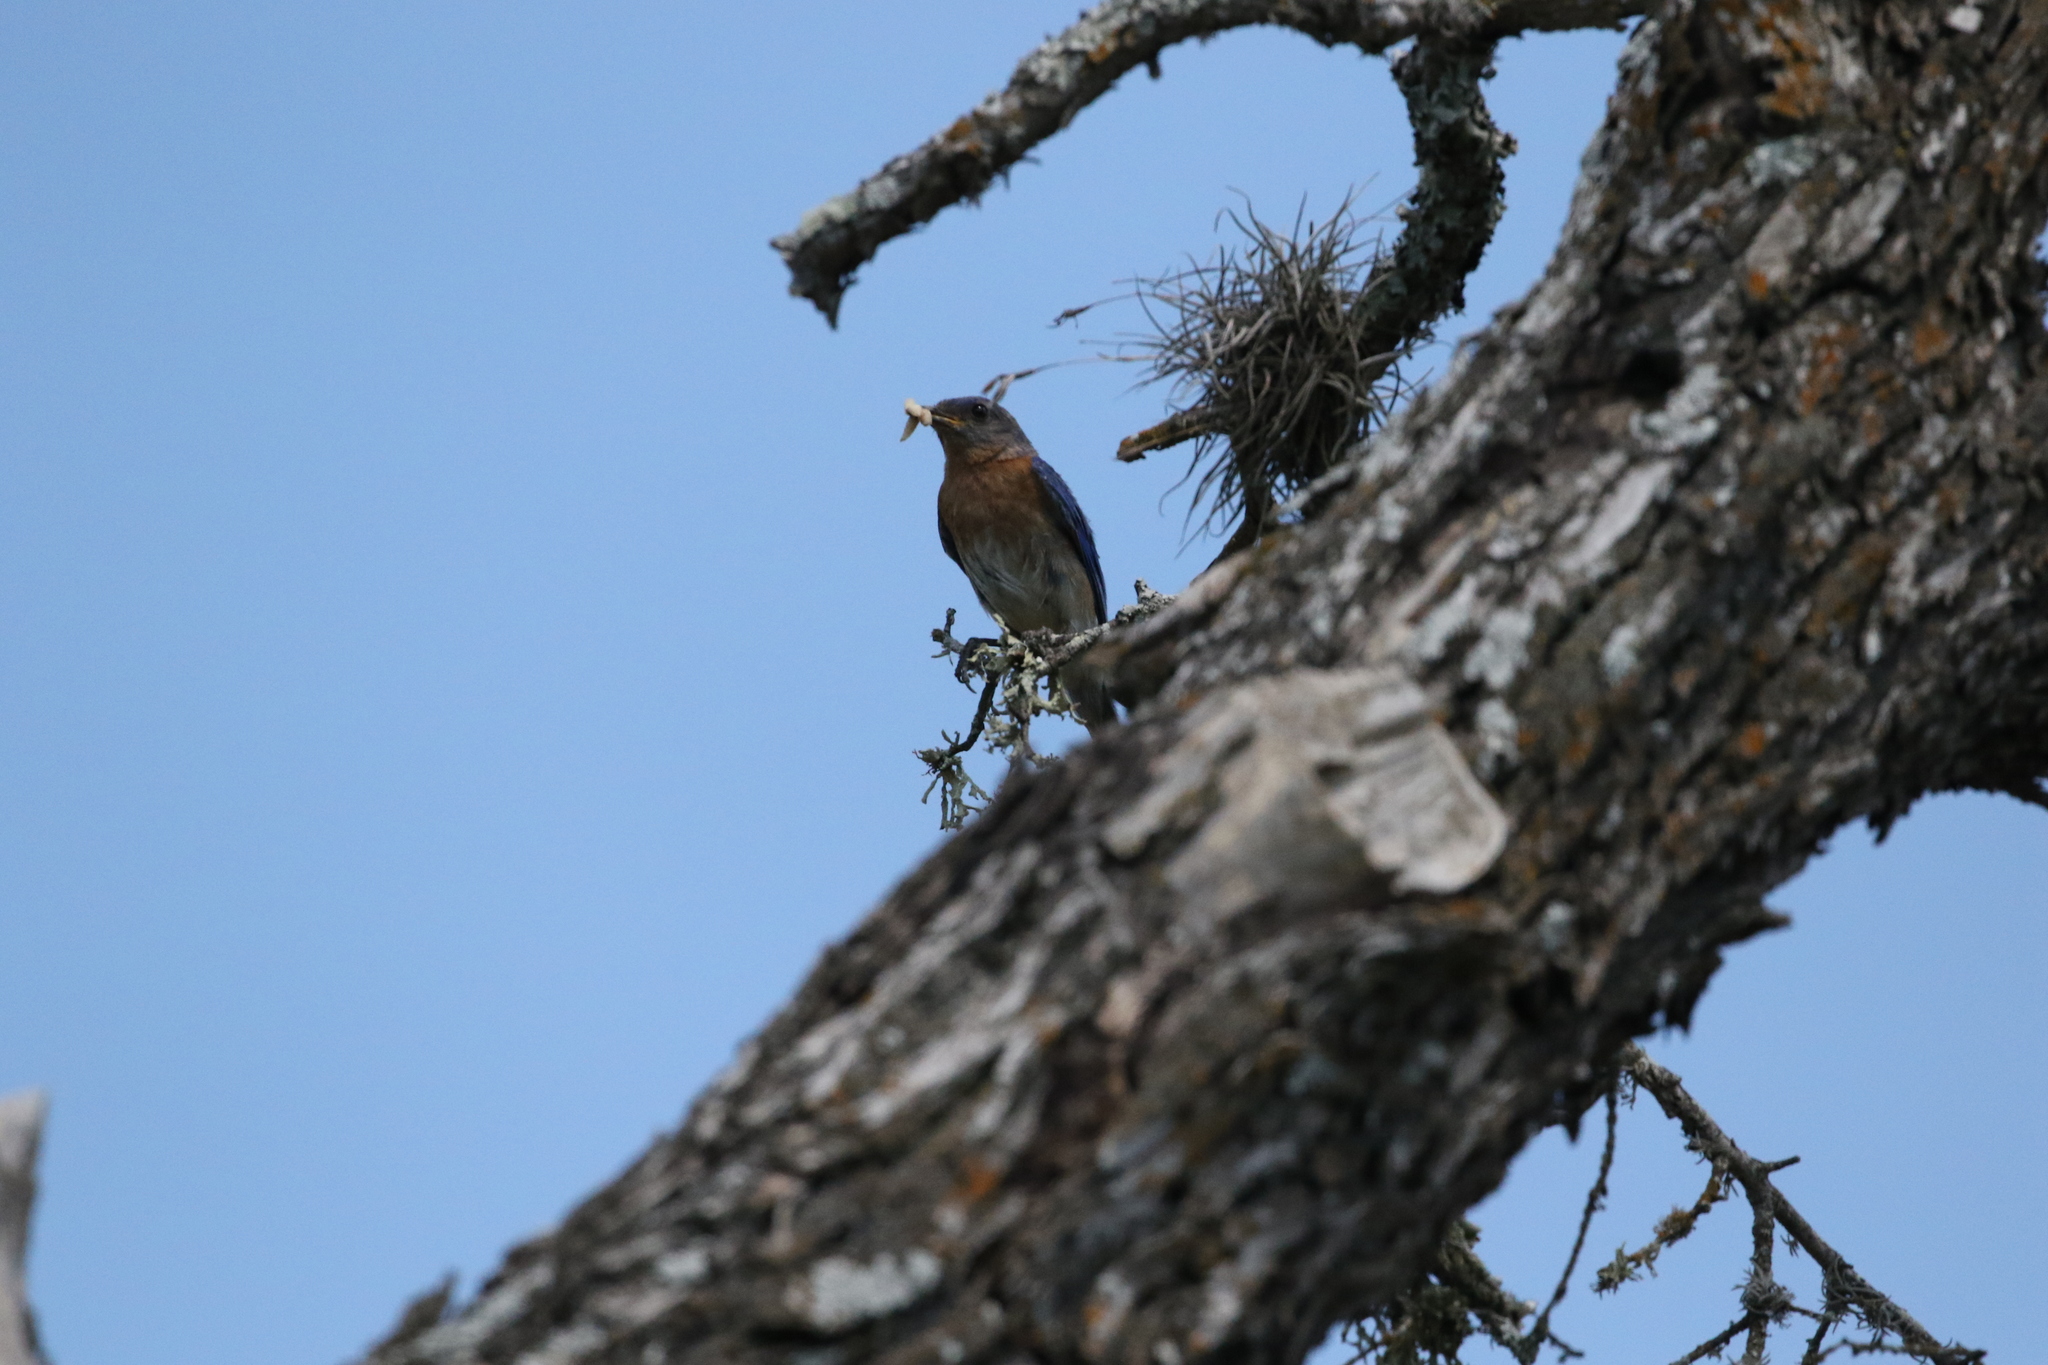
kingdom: Animalia
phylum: Chordata
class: Aves
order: Passeriformes
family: Turdidae
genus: Sialia
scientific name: Sialia sialis
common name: Eastern bluebird
